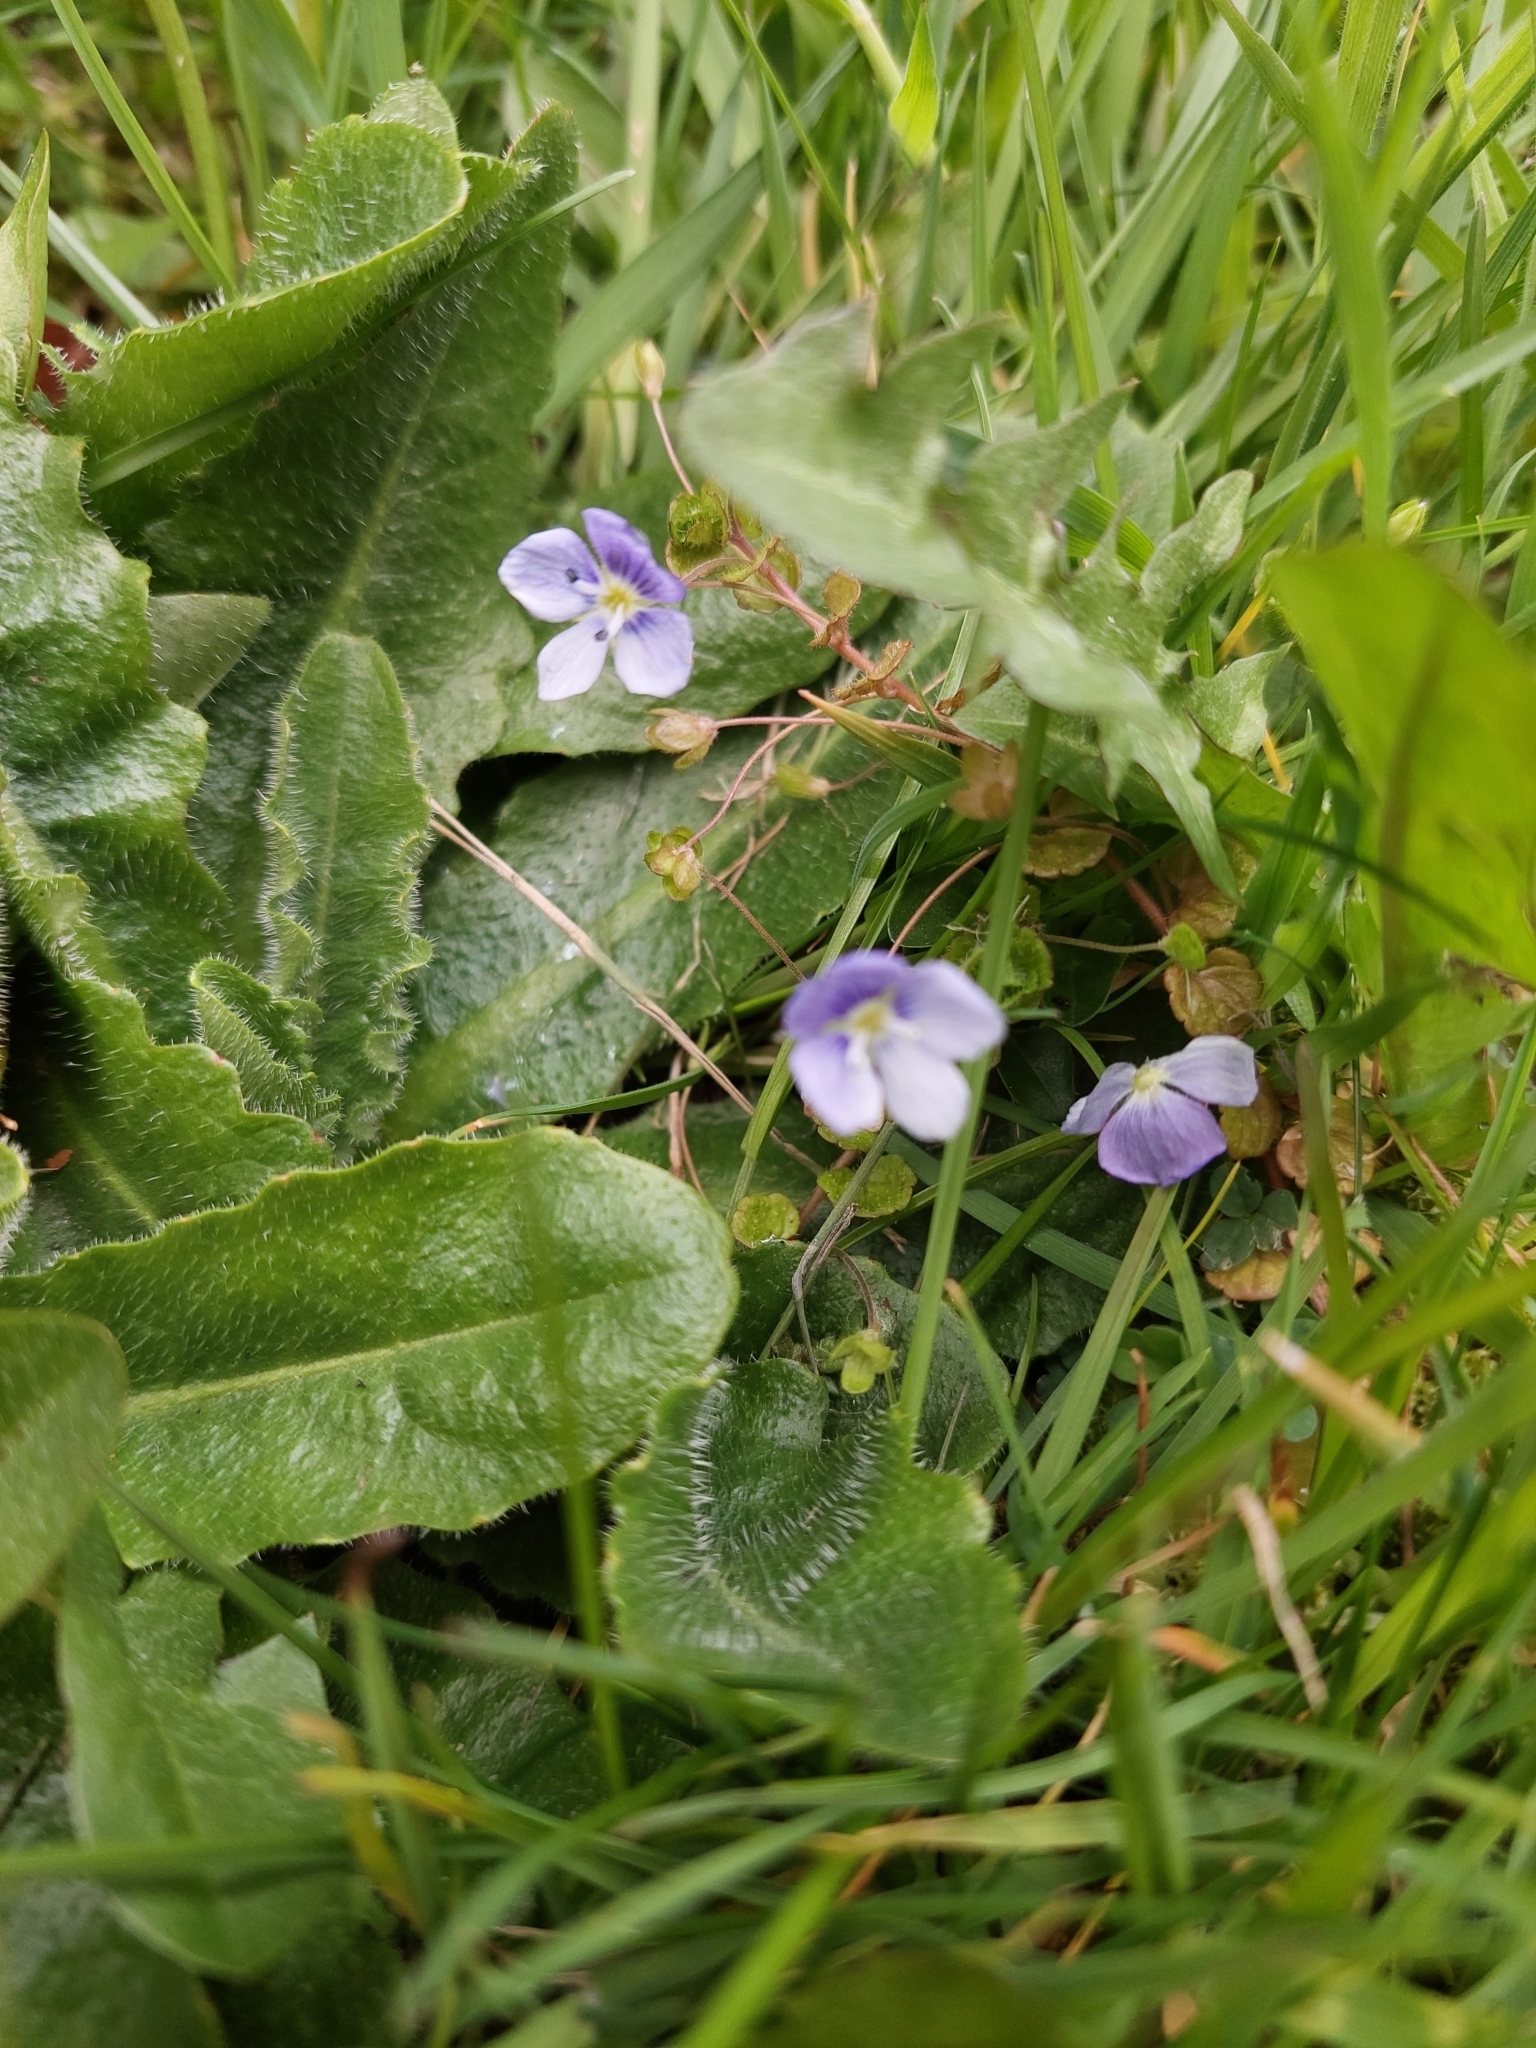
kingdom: Plantae
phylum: Tracheophyta
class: Magnoliopsida
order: Lamiales
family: Plantaginaceae
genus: Veronica
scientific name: Veronica filiformis
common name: Slender speedwell
